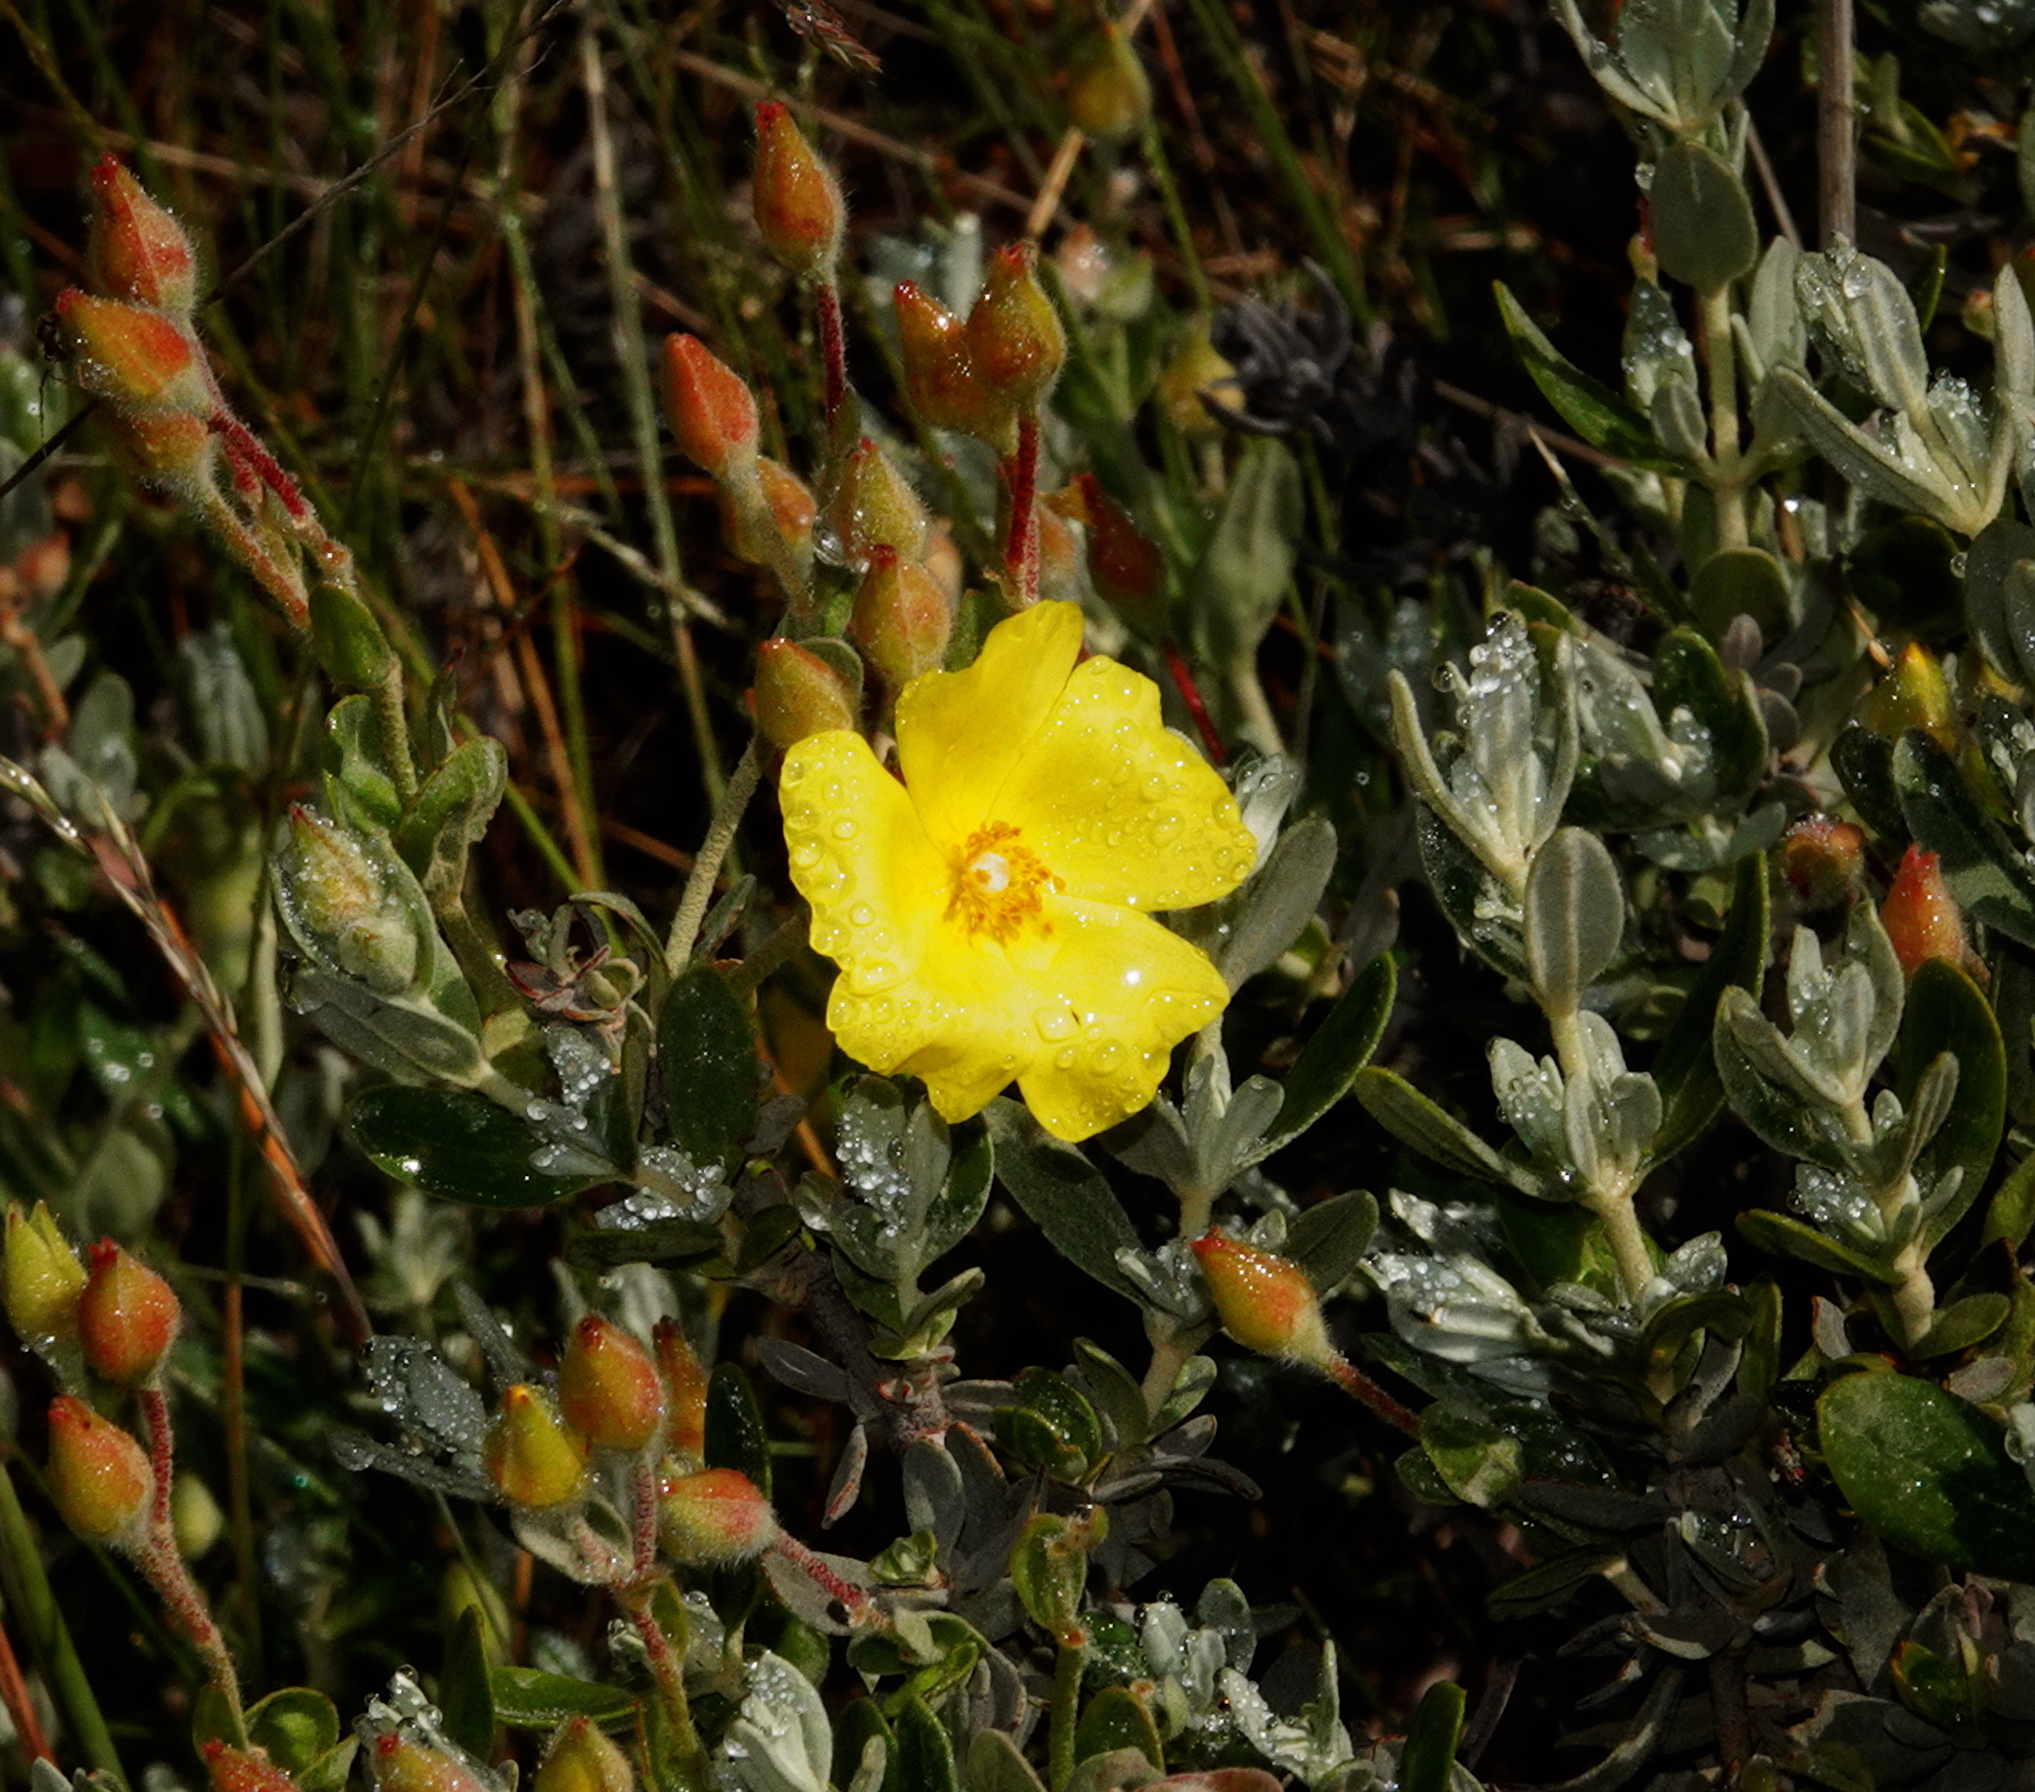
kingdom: Plantae
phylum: Tracheophyta
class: Magnoliopsida
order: Malvales
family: Cistaceae
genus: Halimium
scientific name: Halimium lasianthum
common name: Lisbon false sun-rose
